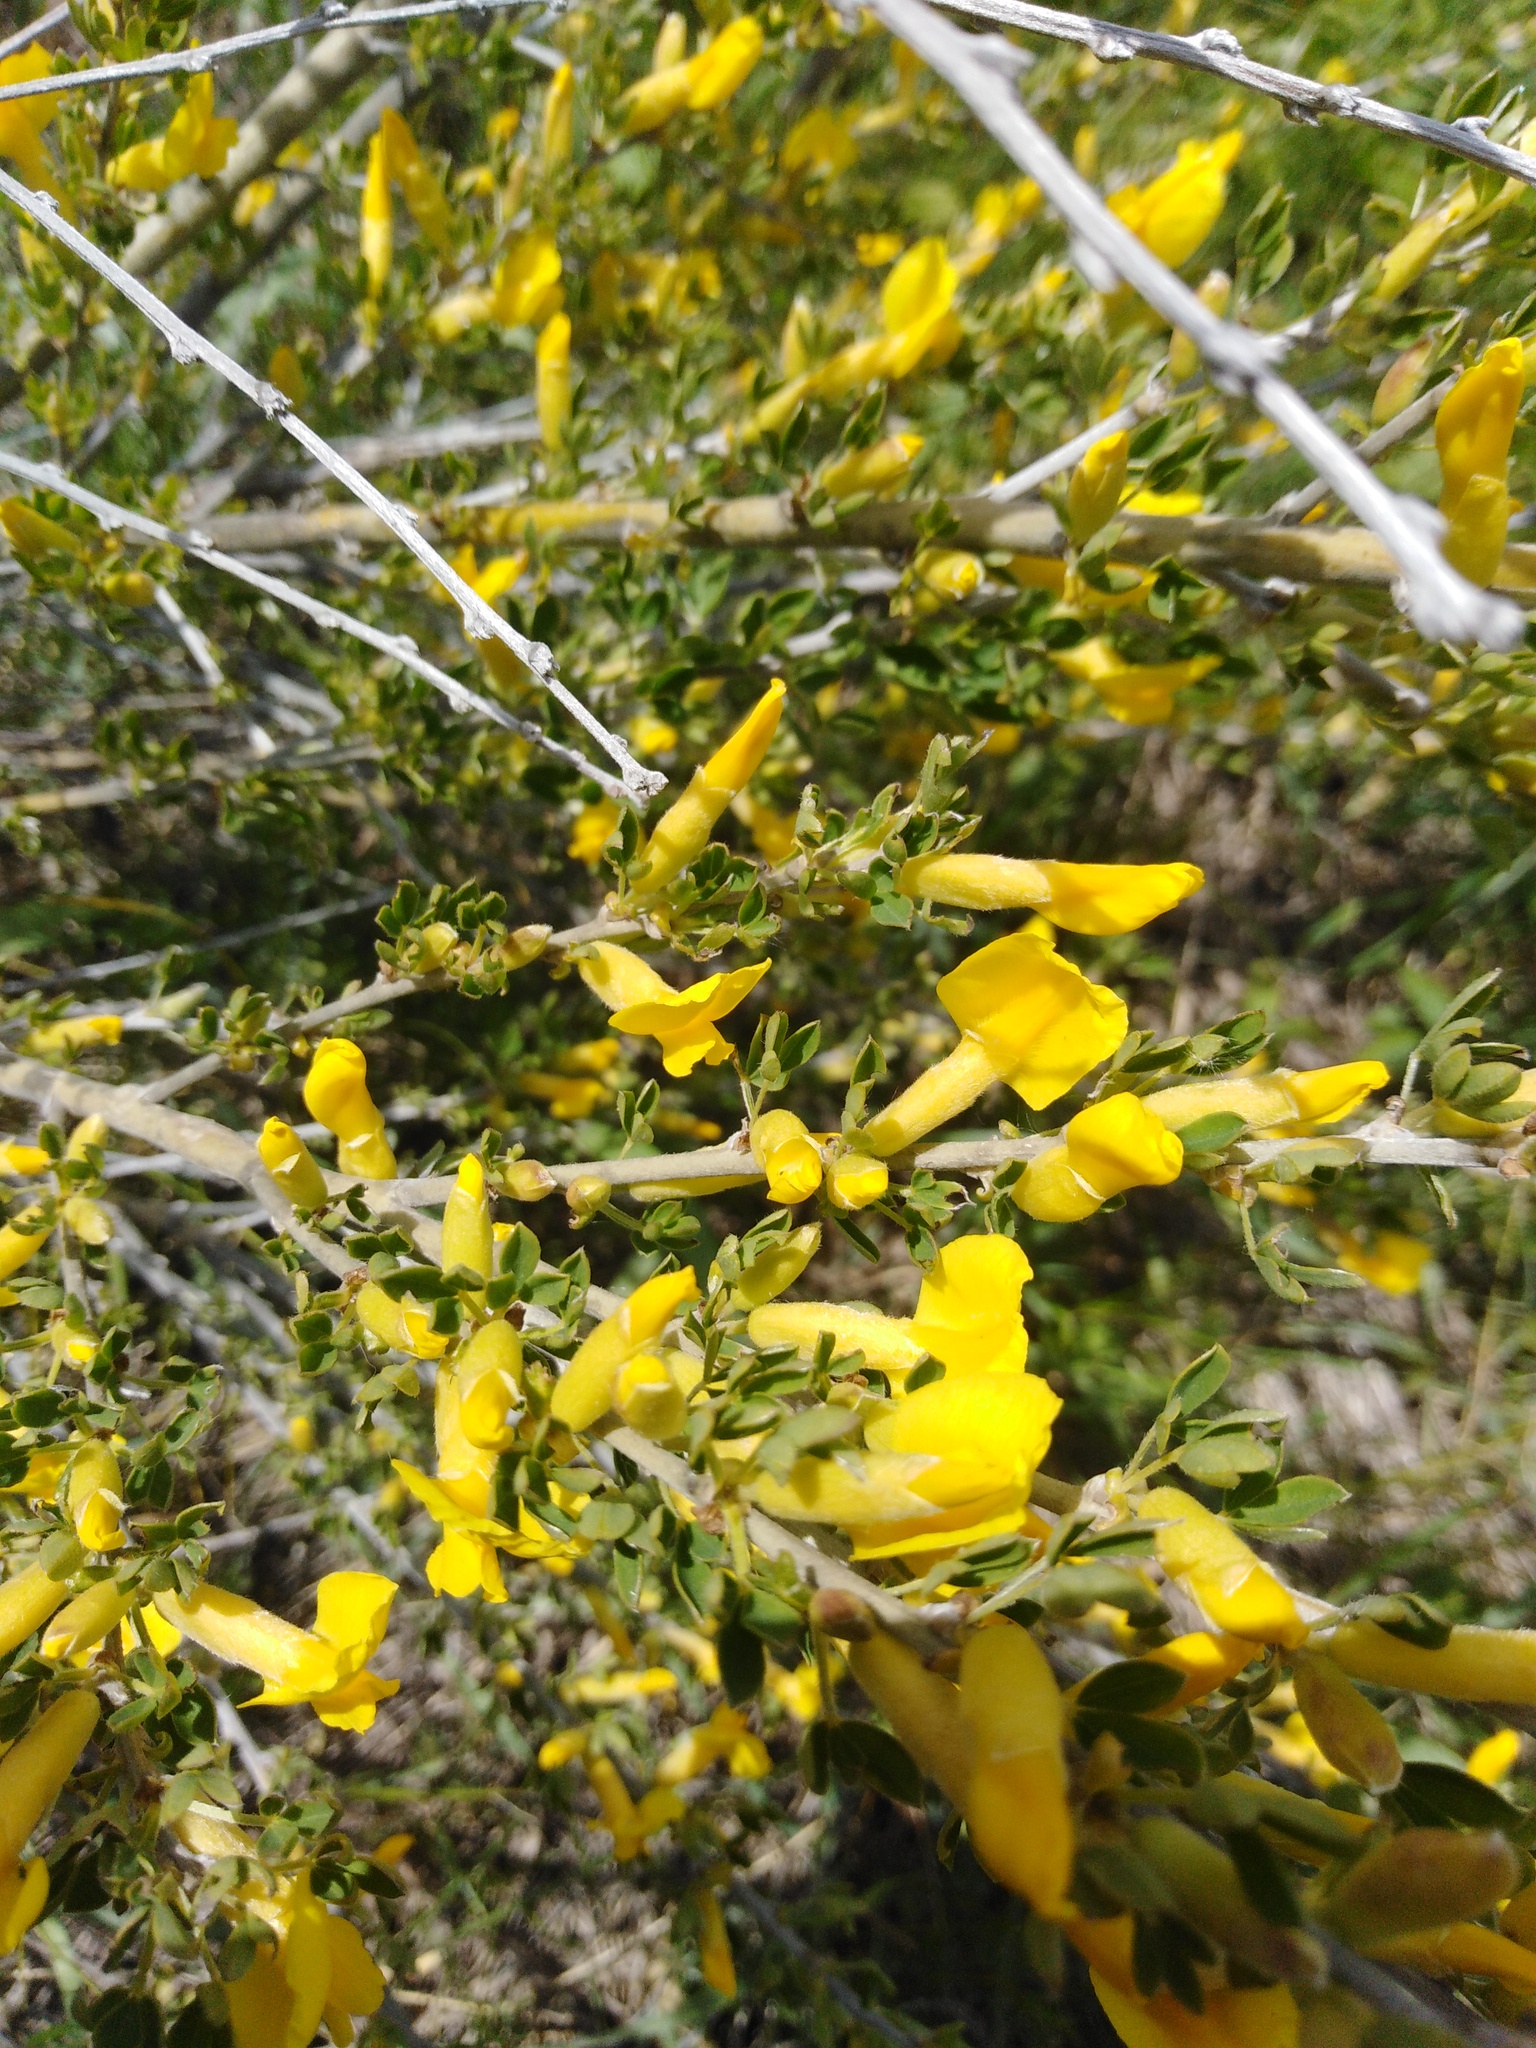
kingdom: Plantae
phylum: Tracheophyta
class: Magnoliopsida
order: Fabales
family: Fabaceae
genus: Chamaecytisus
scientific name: Chamaecytisus ruthenicus
